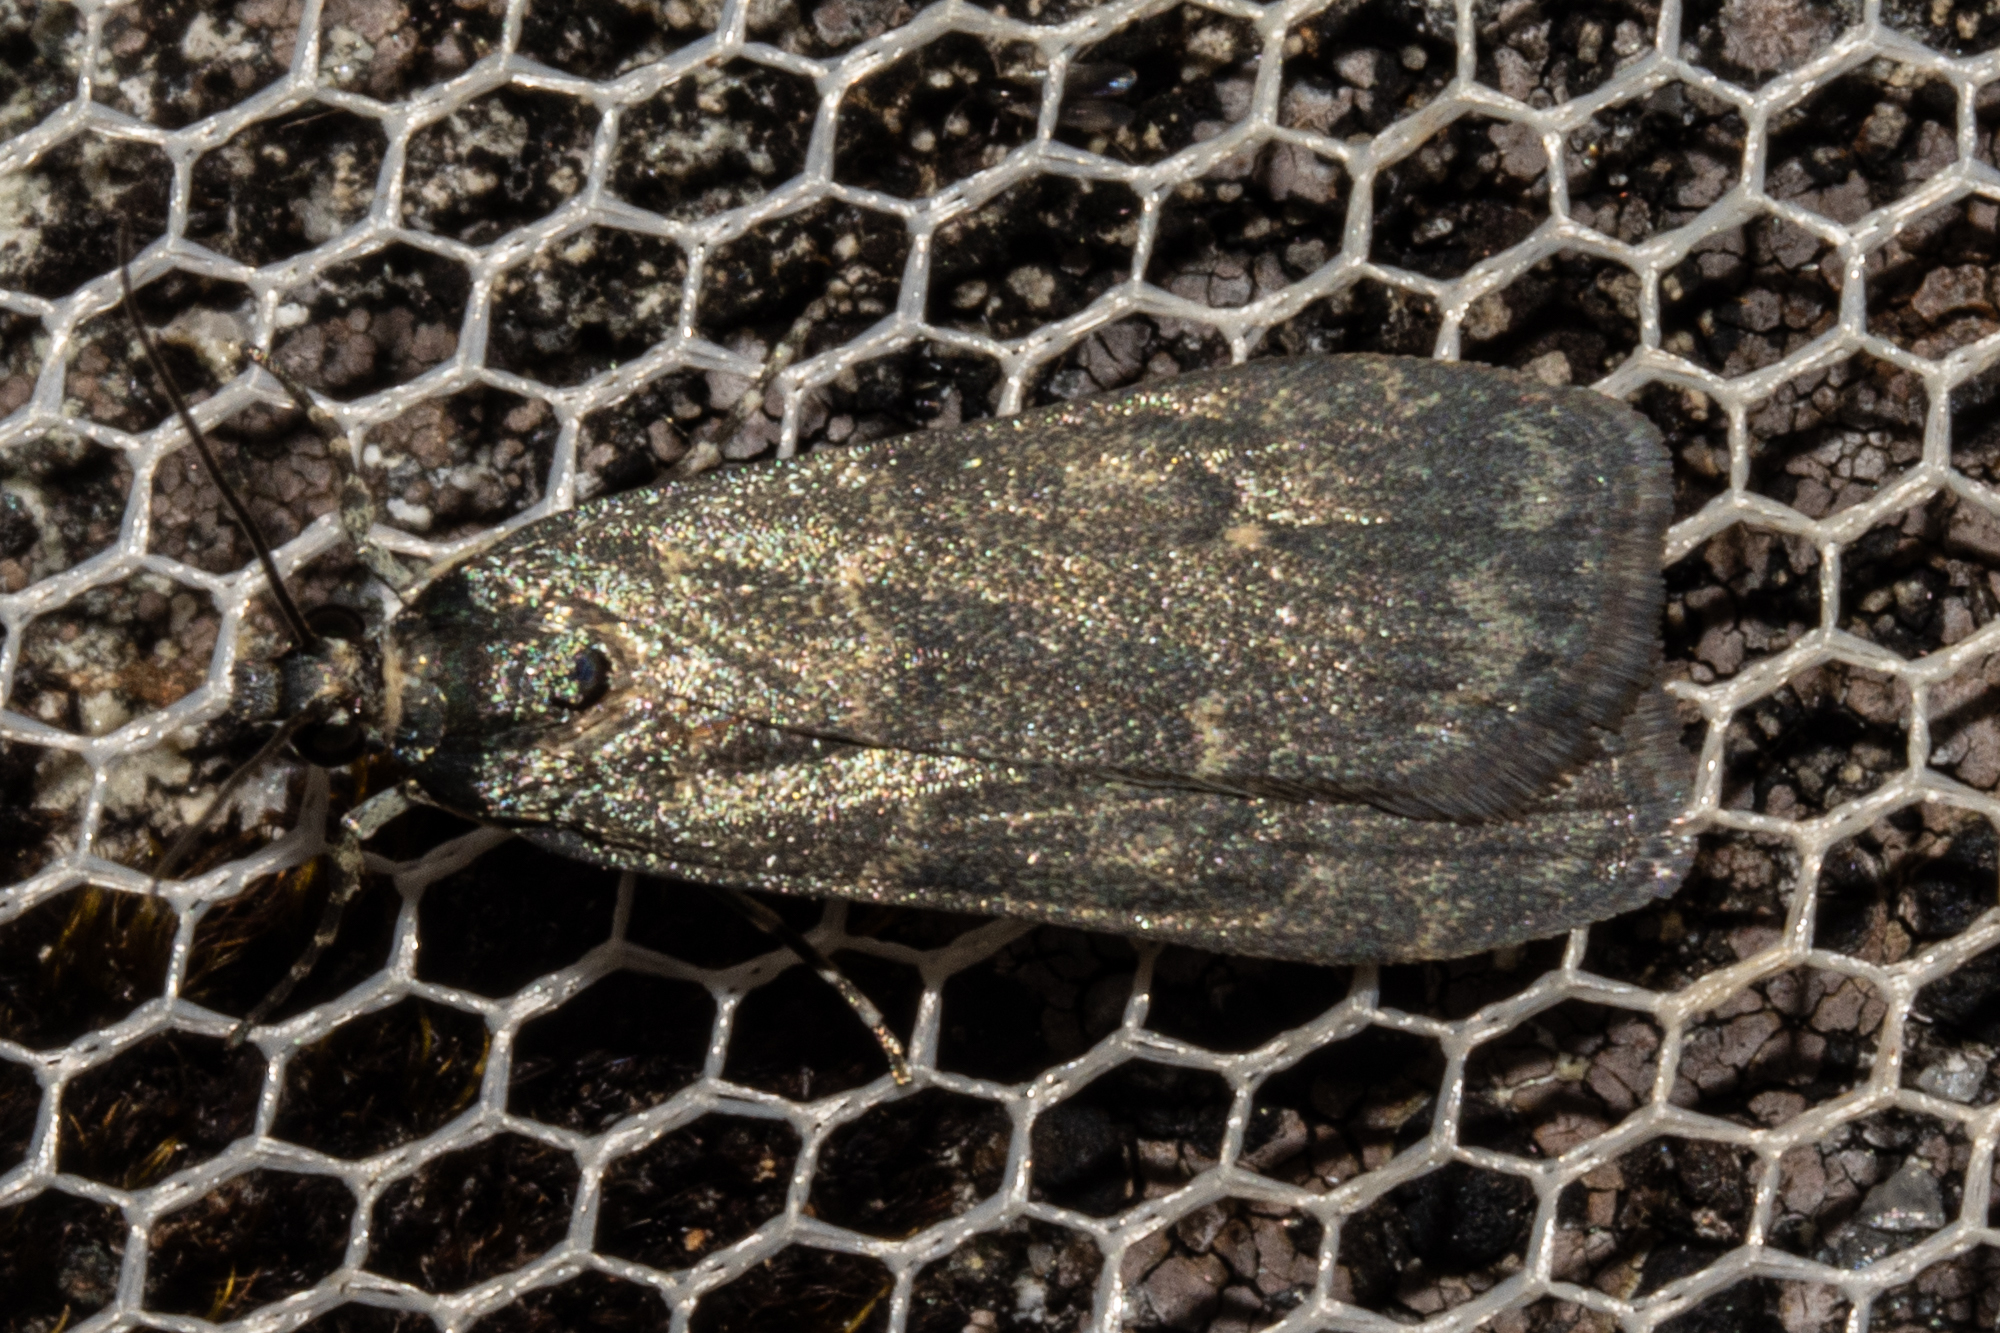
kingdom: Animalia
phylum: Arthropoda
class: Insecta
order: Lepidoptera
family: Crambidae
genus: Eudonia
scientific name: Eudonia cataxesta
